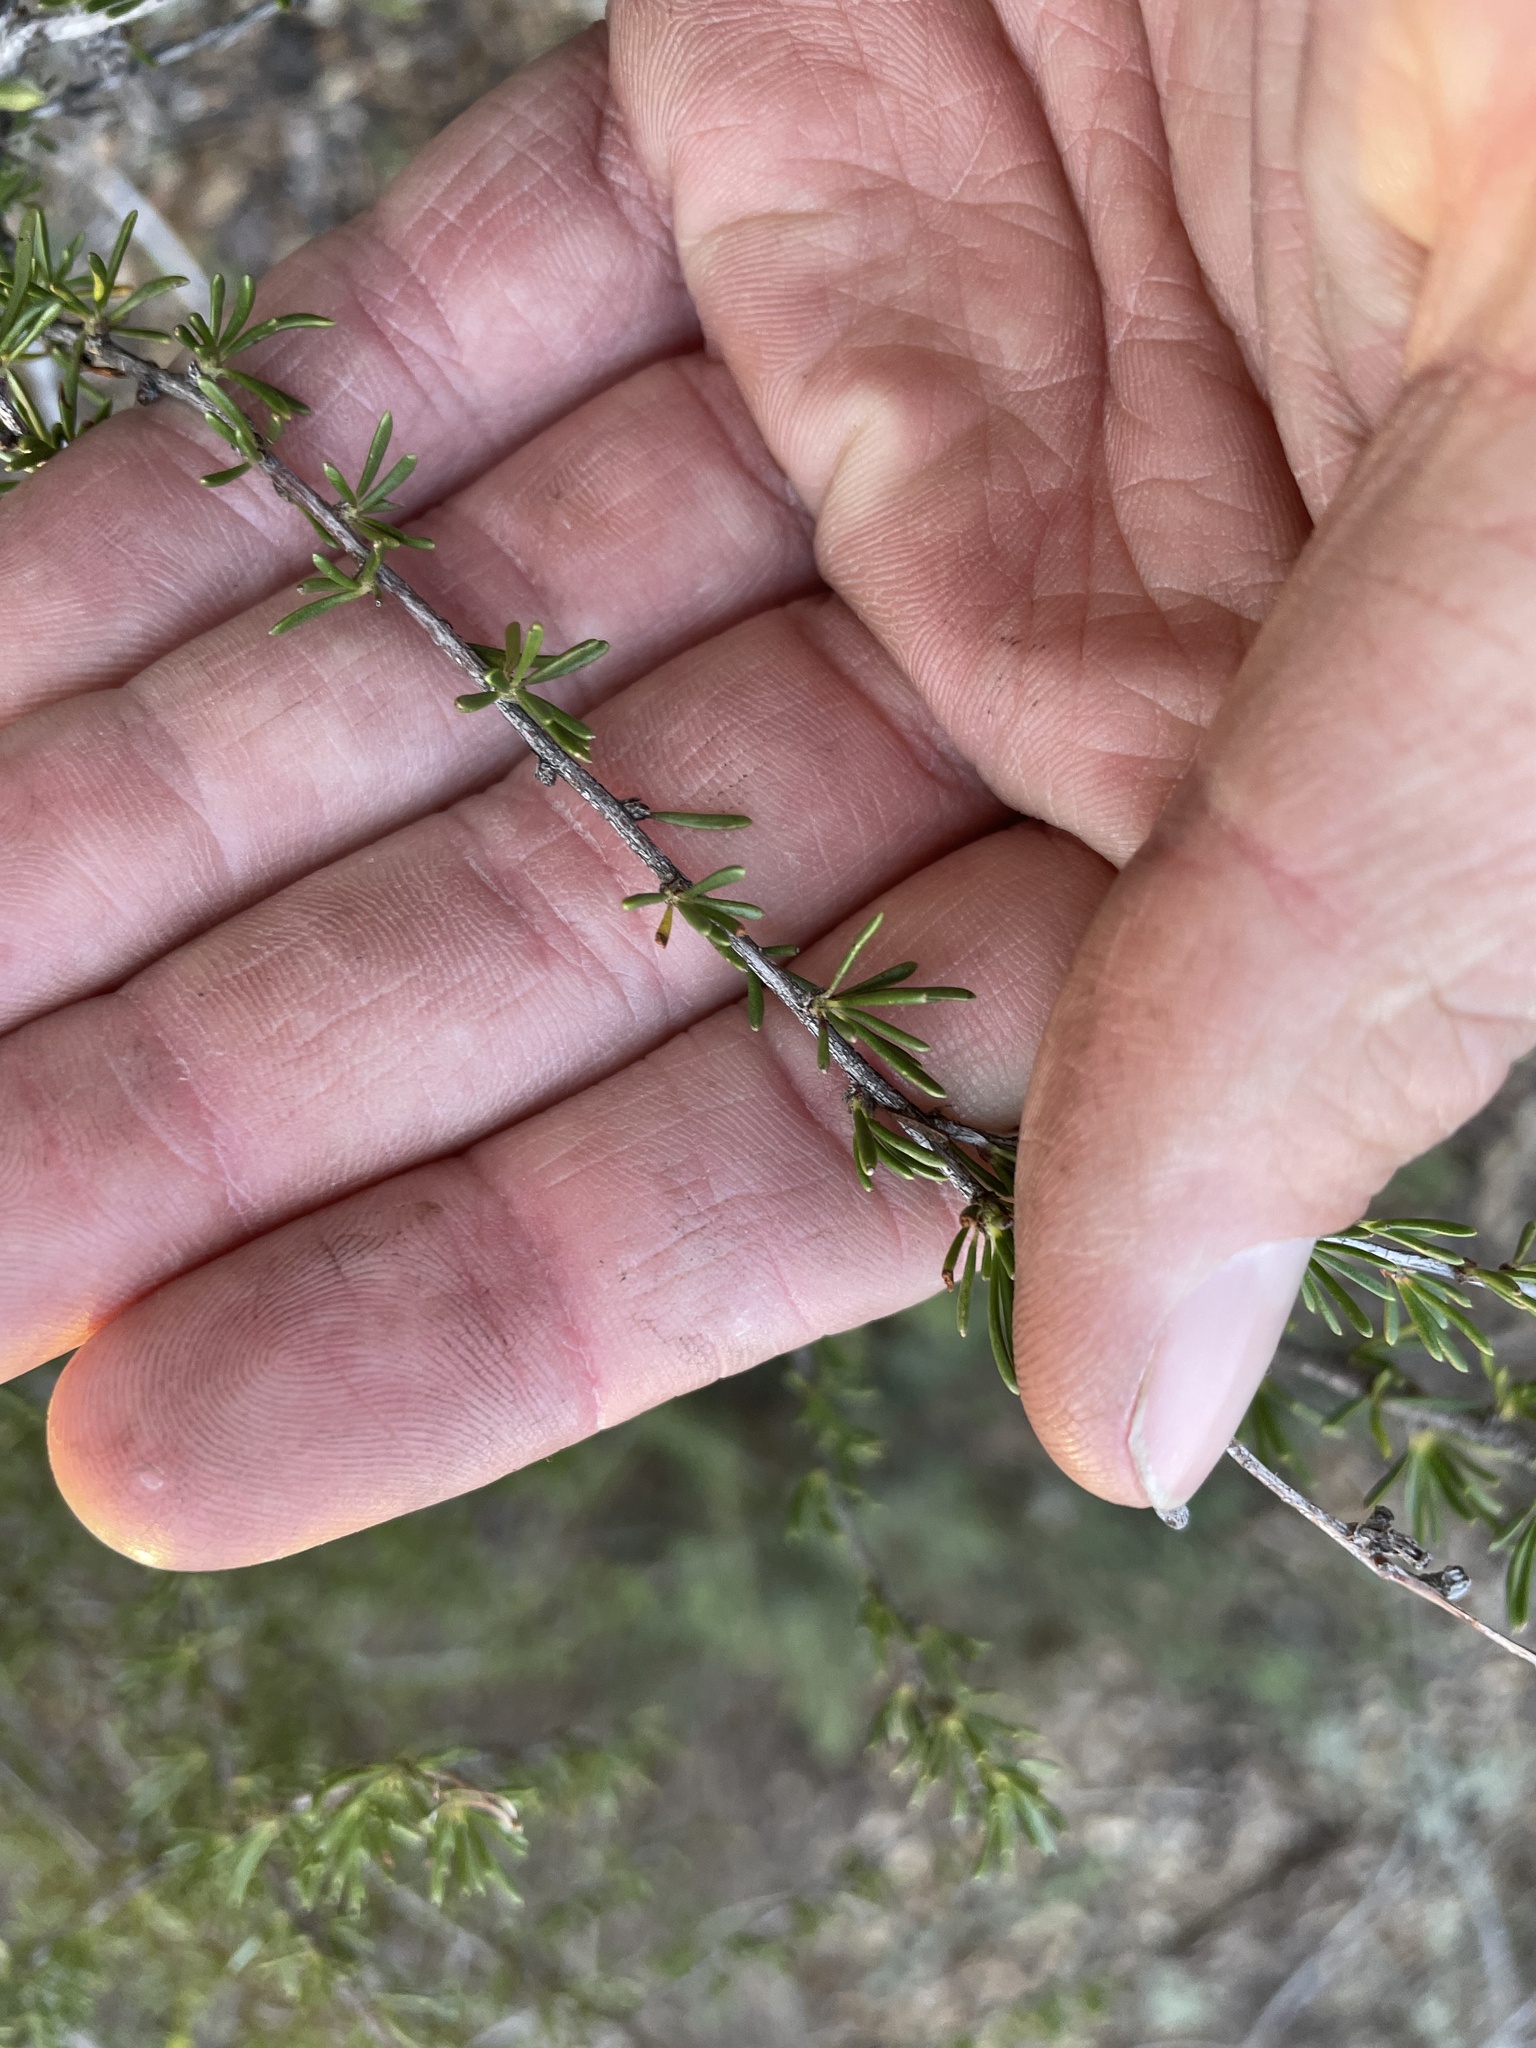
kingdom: Plantae
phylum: Tracheophyta
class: Magnoliopsida
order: Rosales
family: Rosaceae
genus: Adenostoma
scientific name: Adenostoma fasciculatum
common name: Chamise
